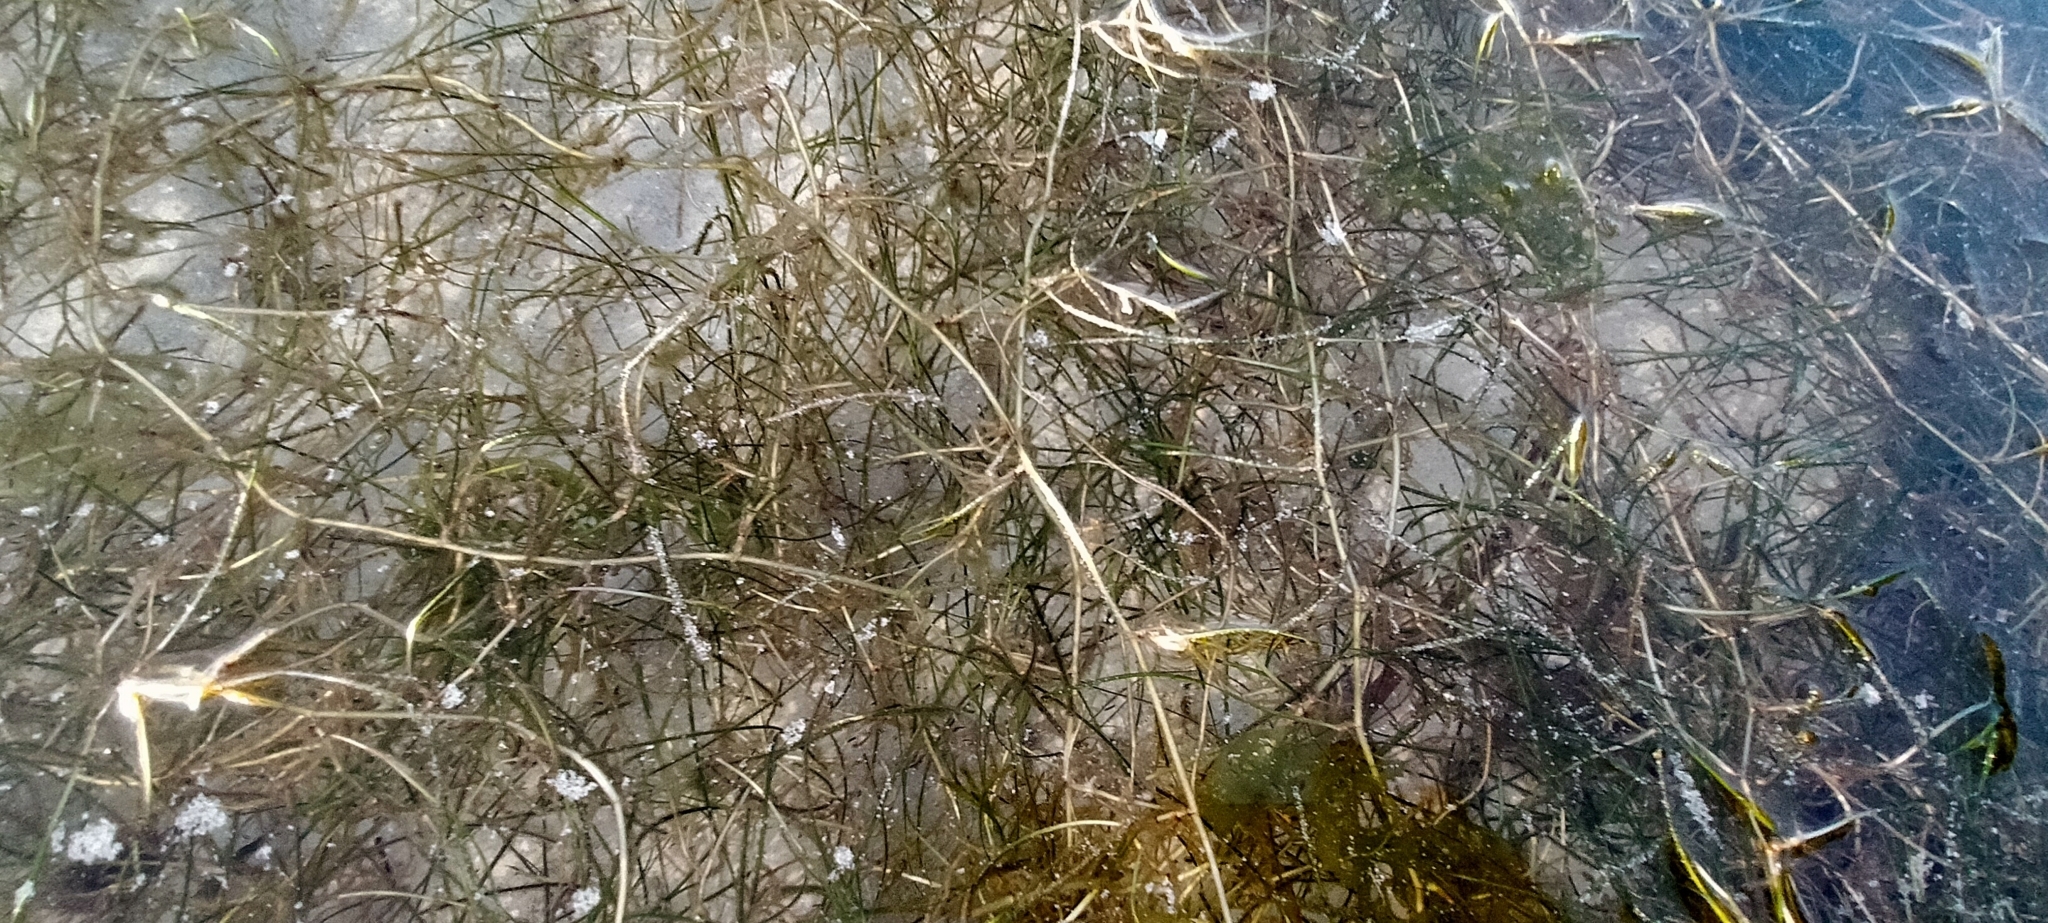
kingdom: Plantae
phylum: Chlorophyta
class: Ulvophyceae
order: Ulvales
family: Ulvaceae
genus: Ulva
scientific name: Ulva intestinalis
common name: Gut weed
